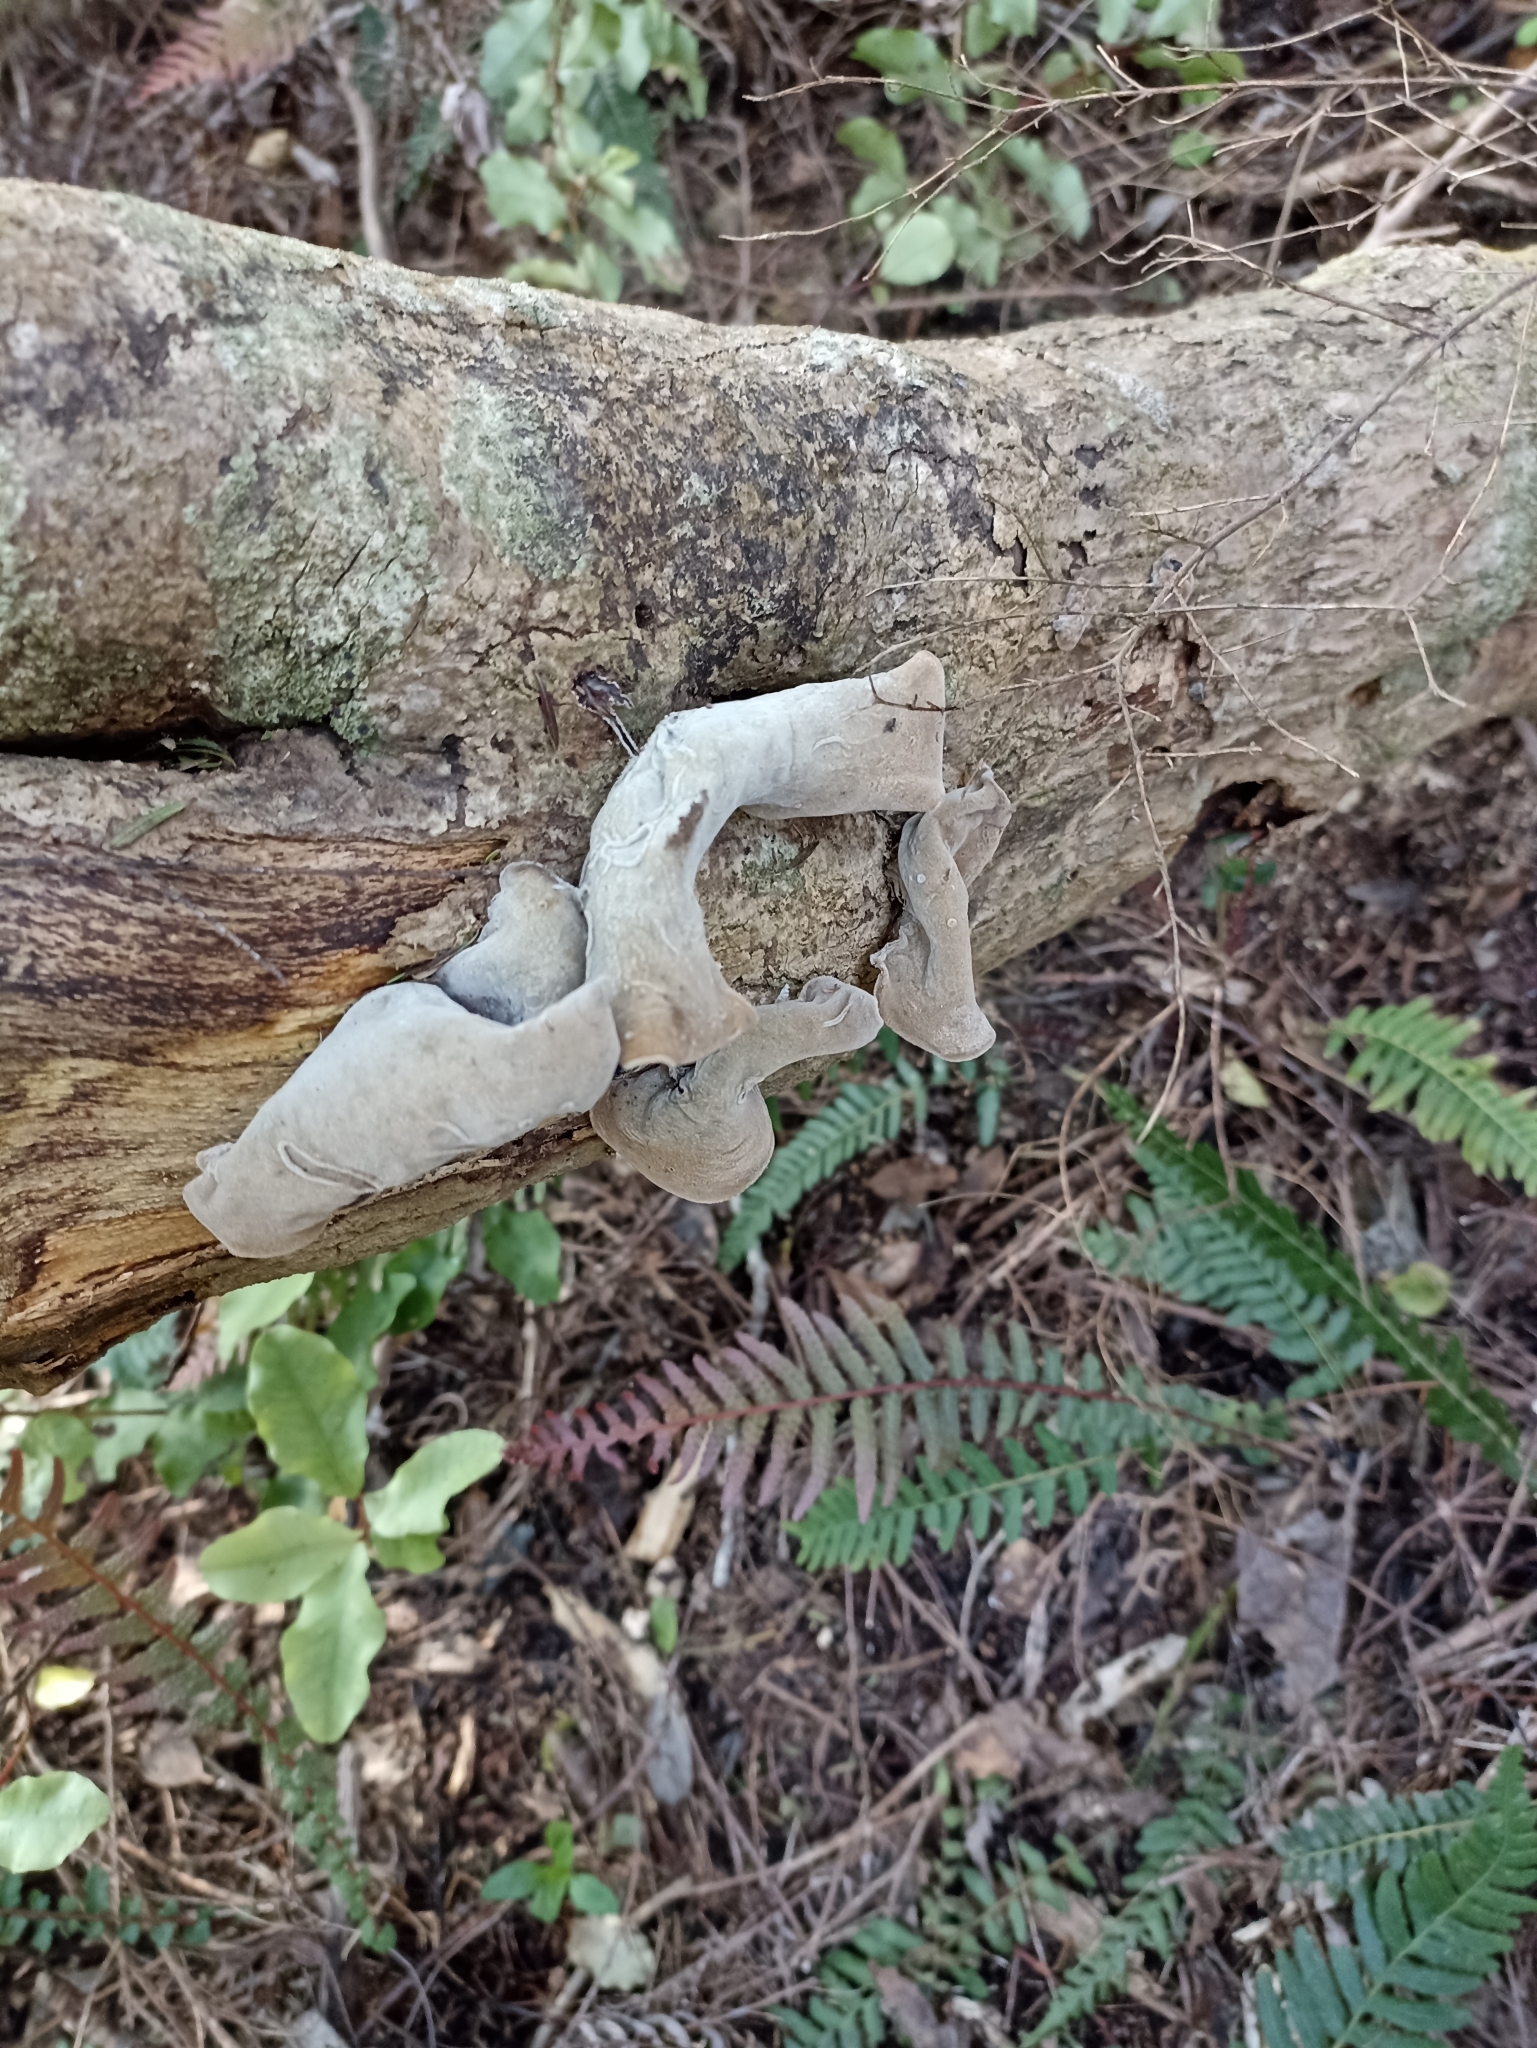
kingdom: Fungi
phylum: Basidiomycota
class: Agaricomycetes
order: Auriculariales
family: Auriculariaceae
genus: Auricularia
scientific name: Auricularia cornea
